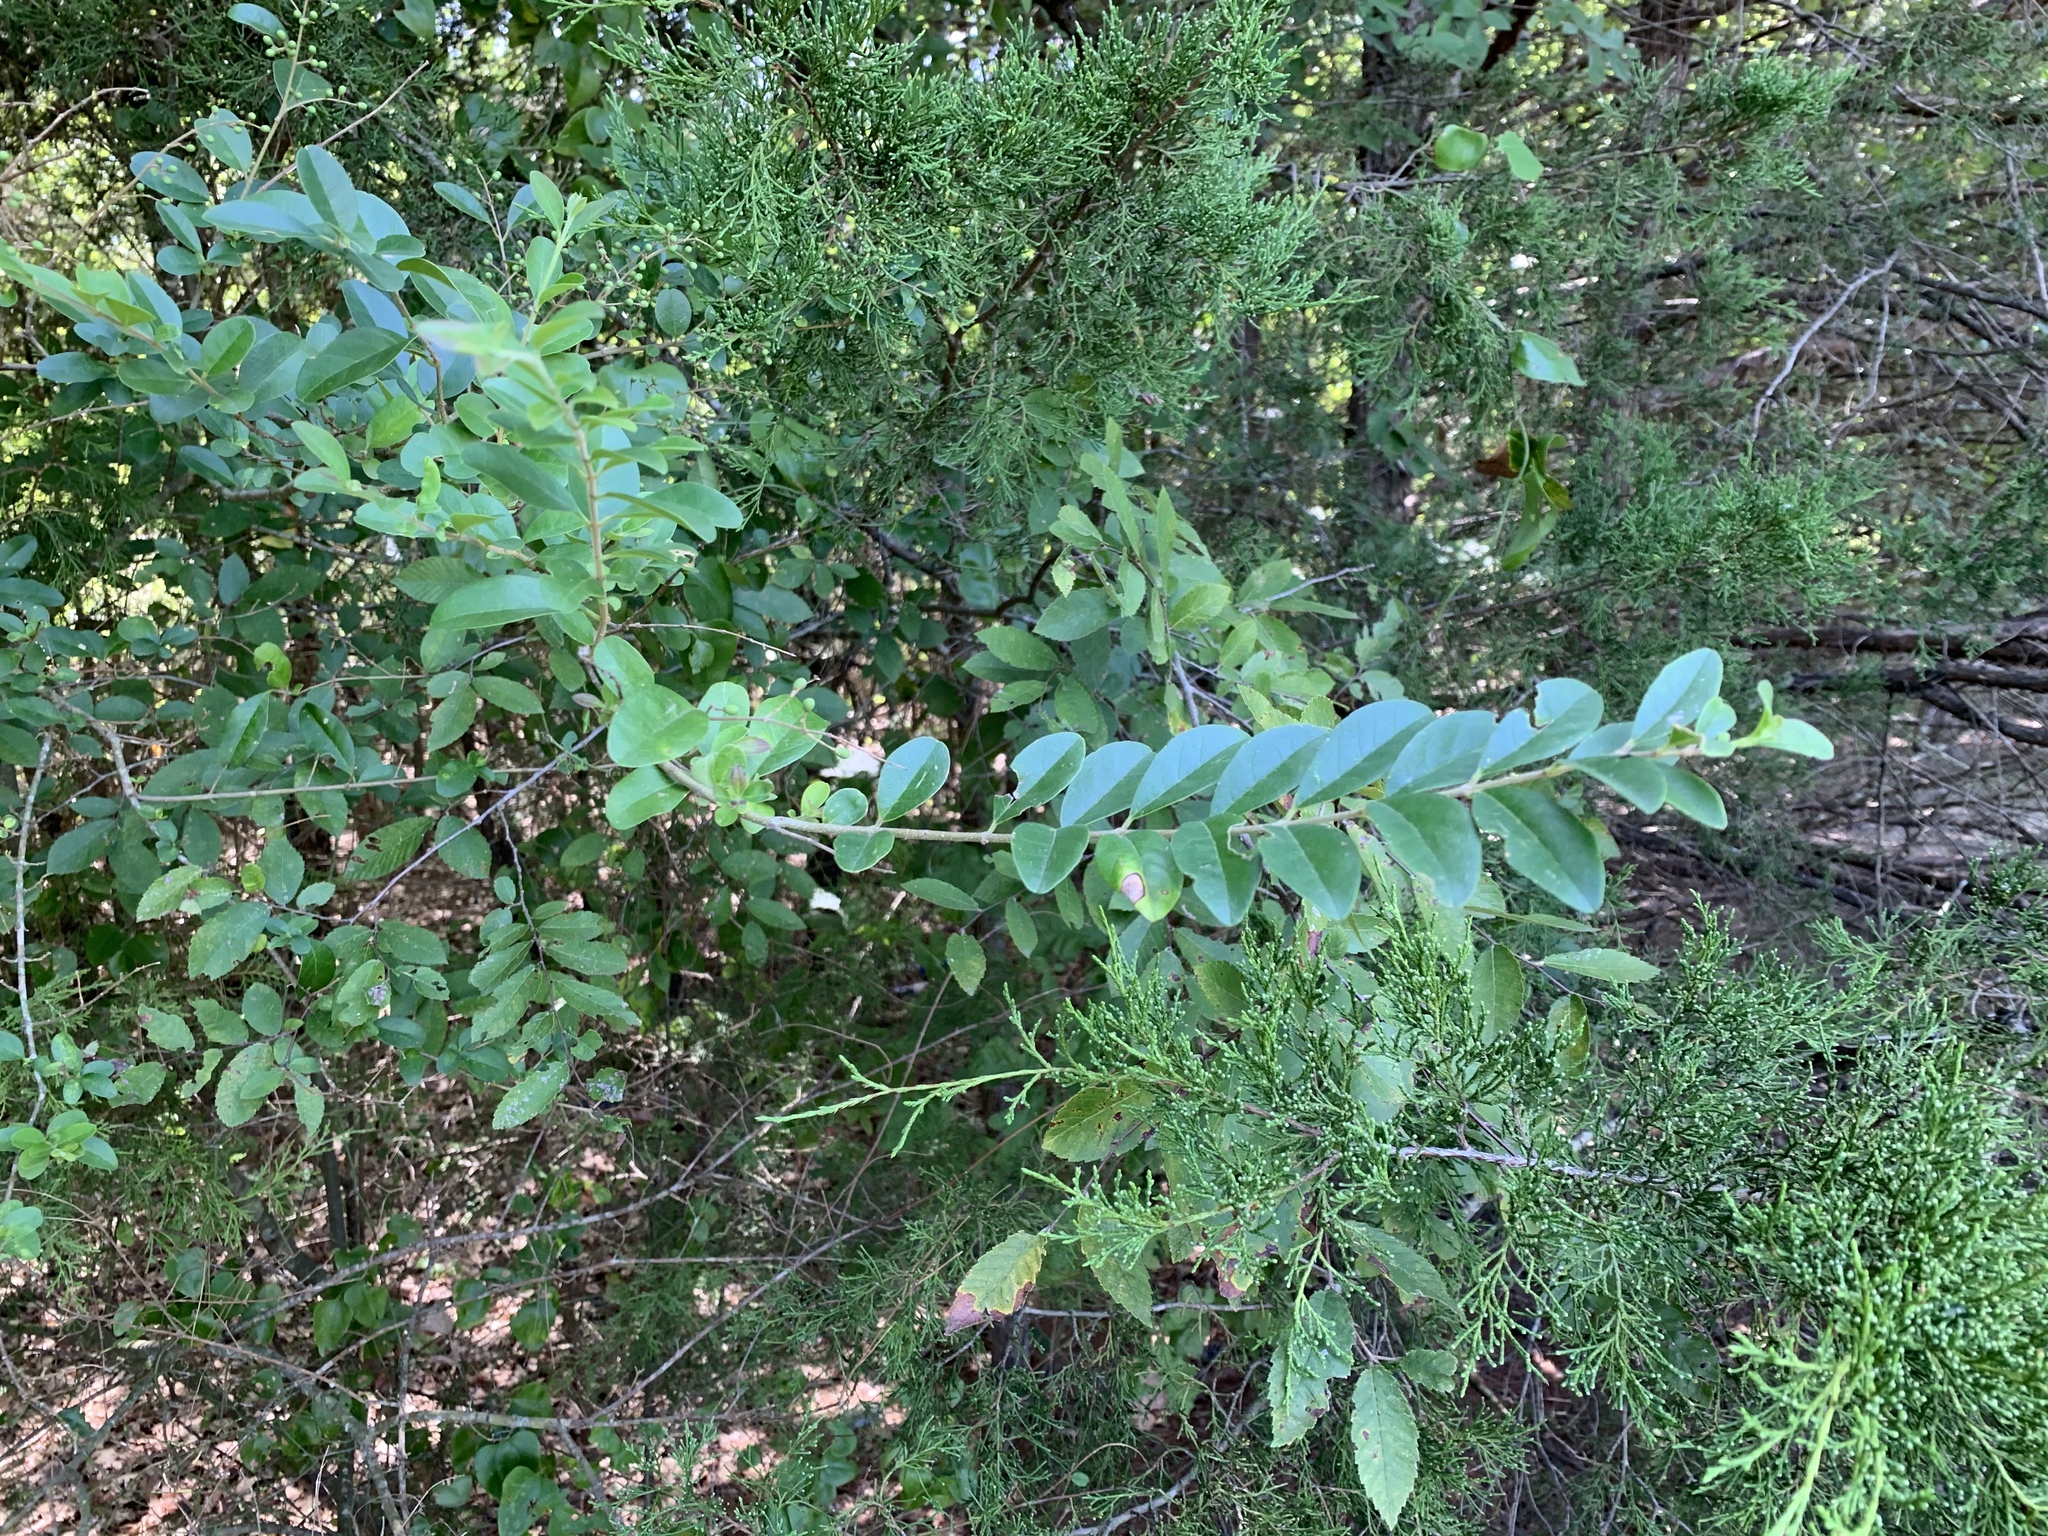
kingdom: Plantae
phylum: Tracheophyta
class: Magnoliopsida
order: Lamiales
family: Oleaceae
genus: Ligustrum
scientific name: Ligustrum sinense
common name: Chinese privet
